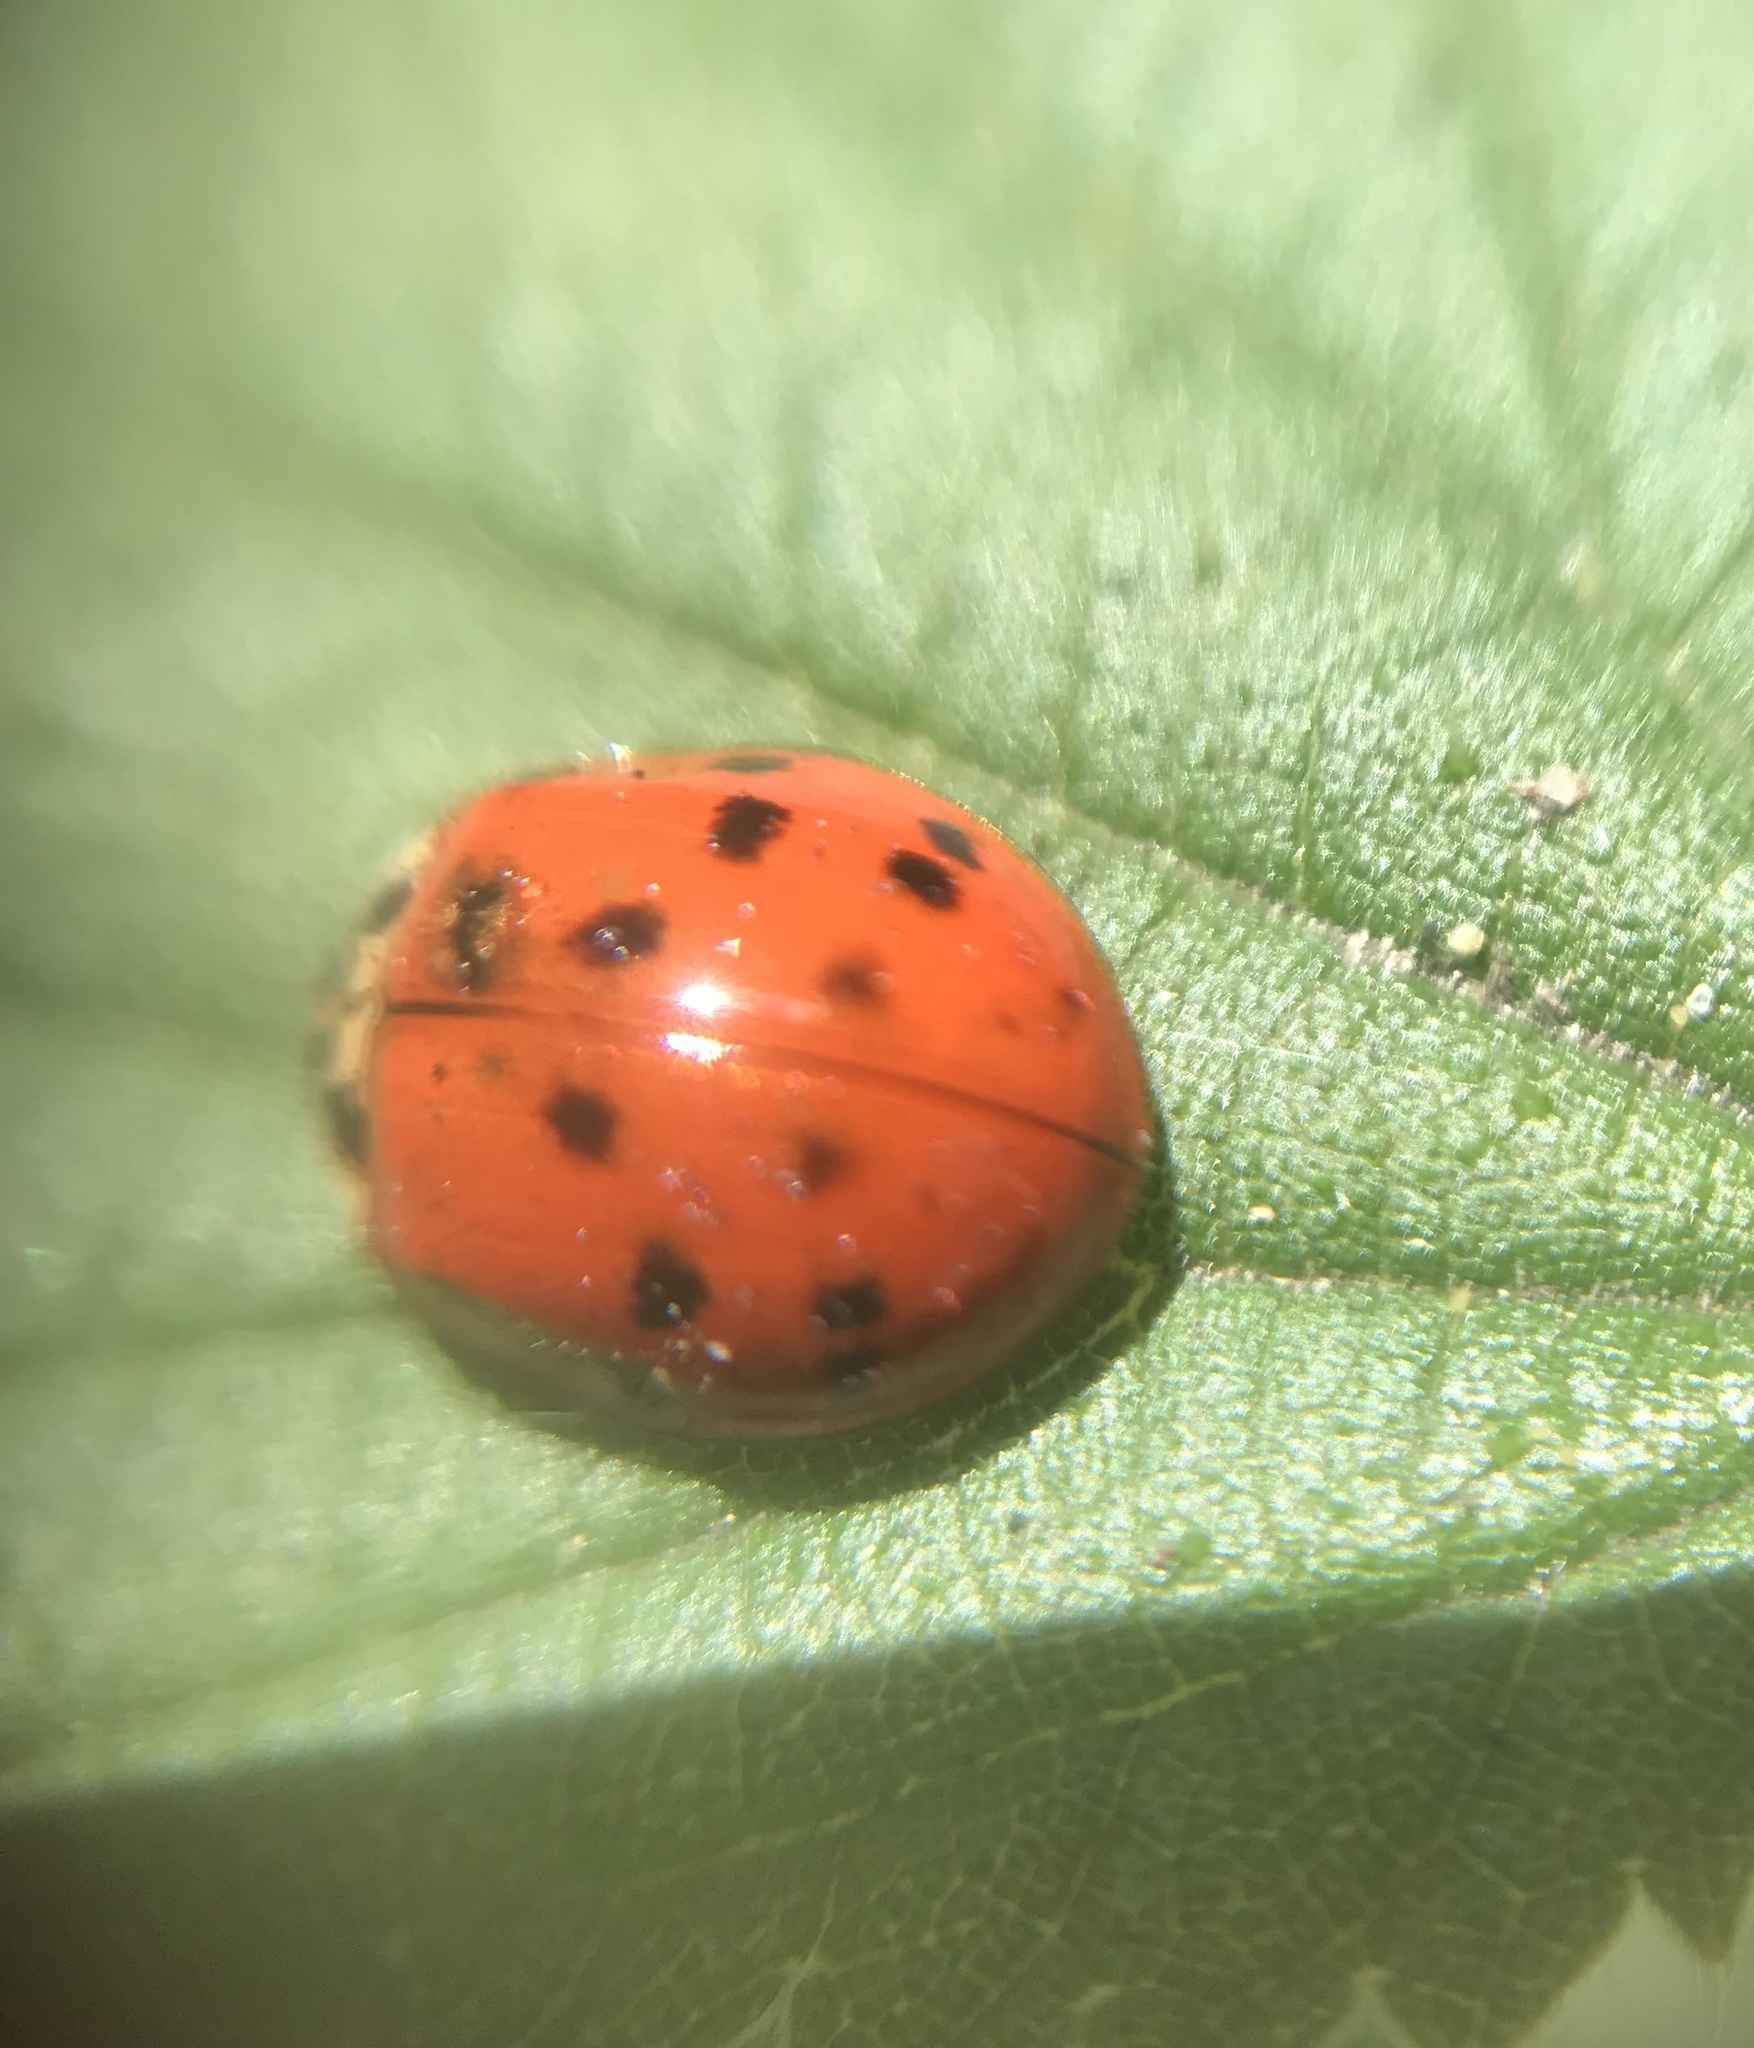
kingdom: Animalia
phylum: Arthropoda
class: Insecta
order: Coleoptera
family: Coccinellidae
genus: Harmonia
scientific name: Harmonia axyridis
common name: Harlequin ladybird
